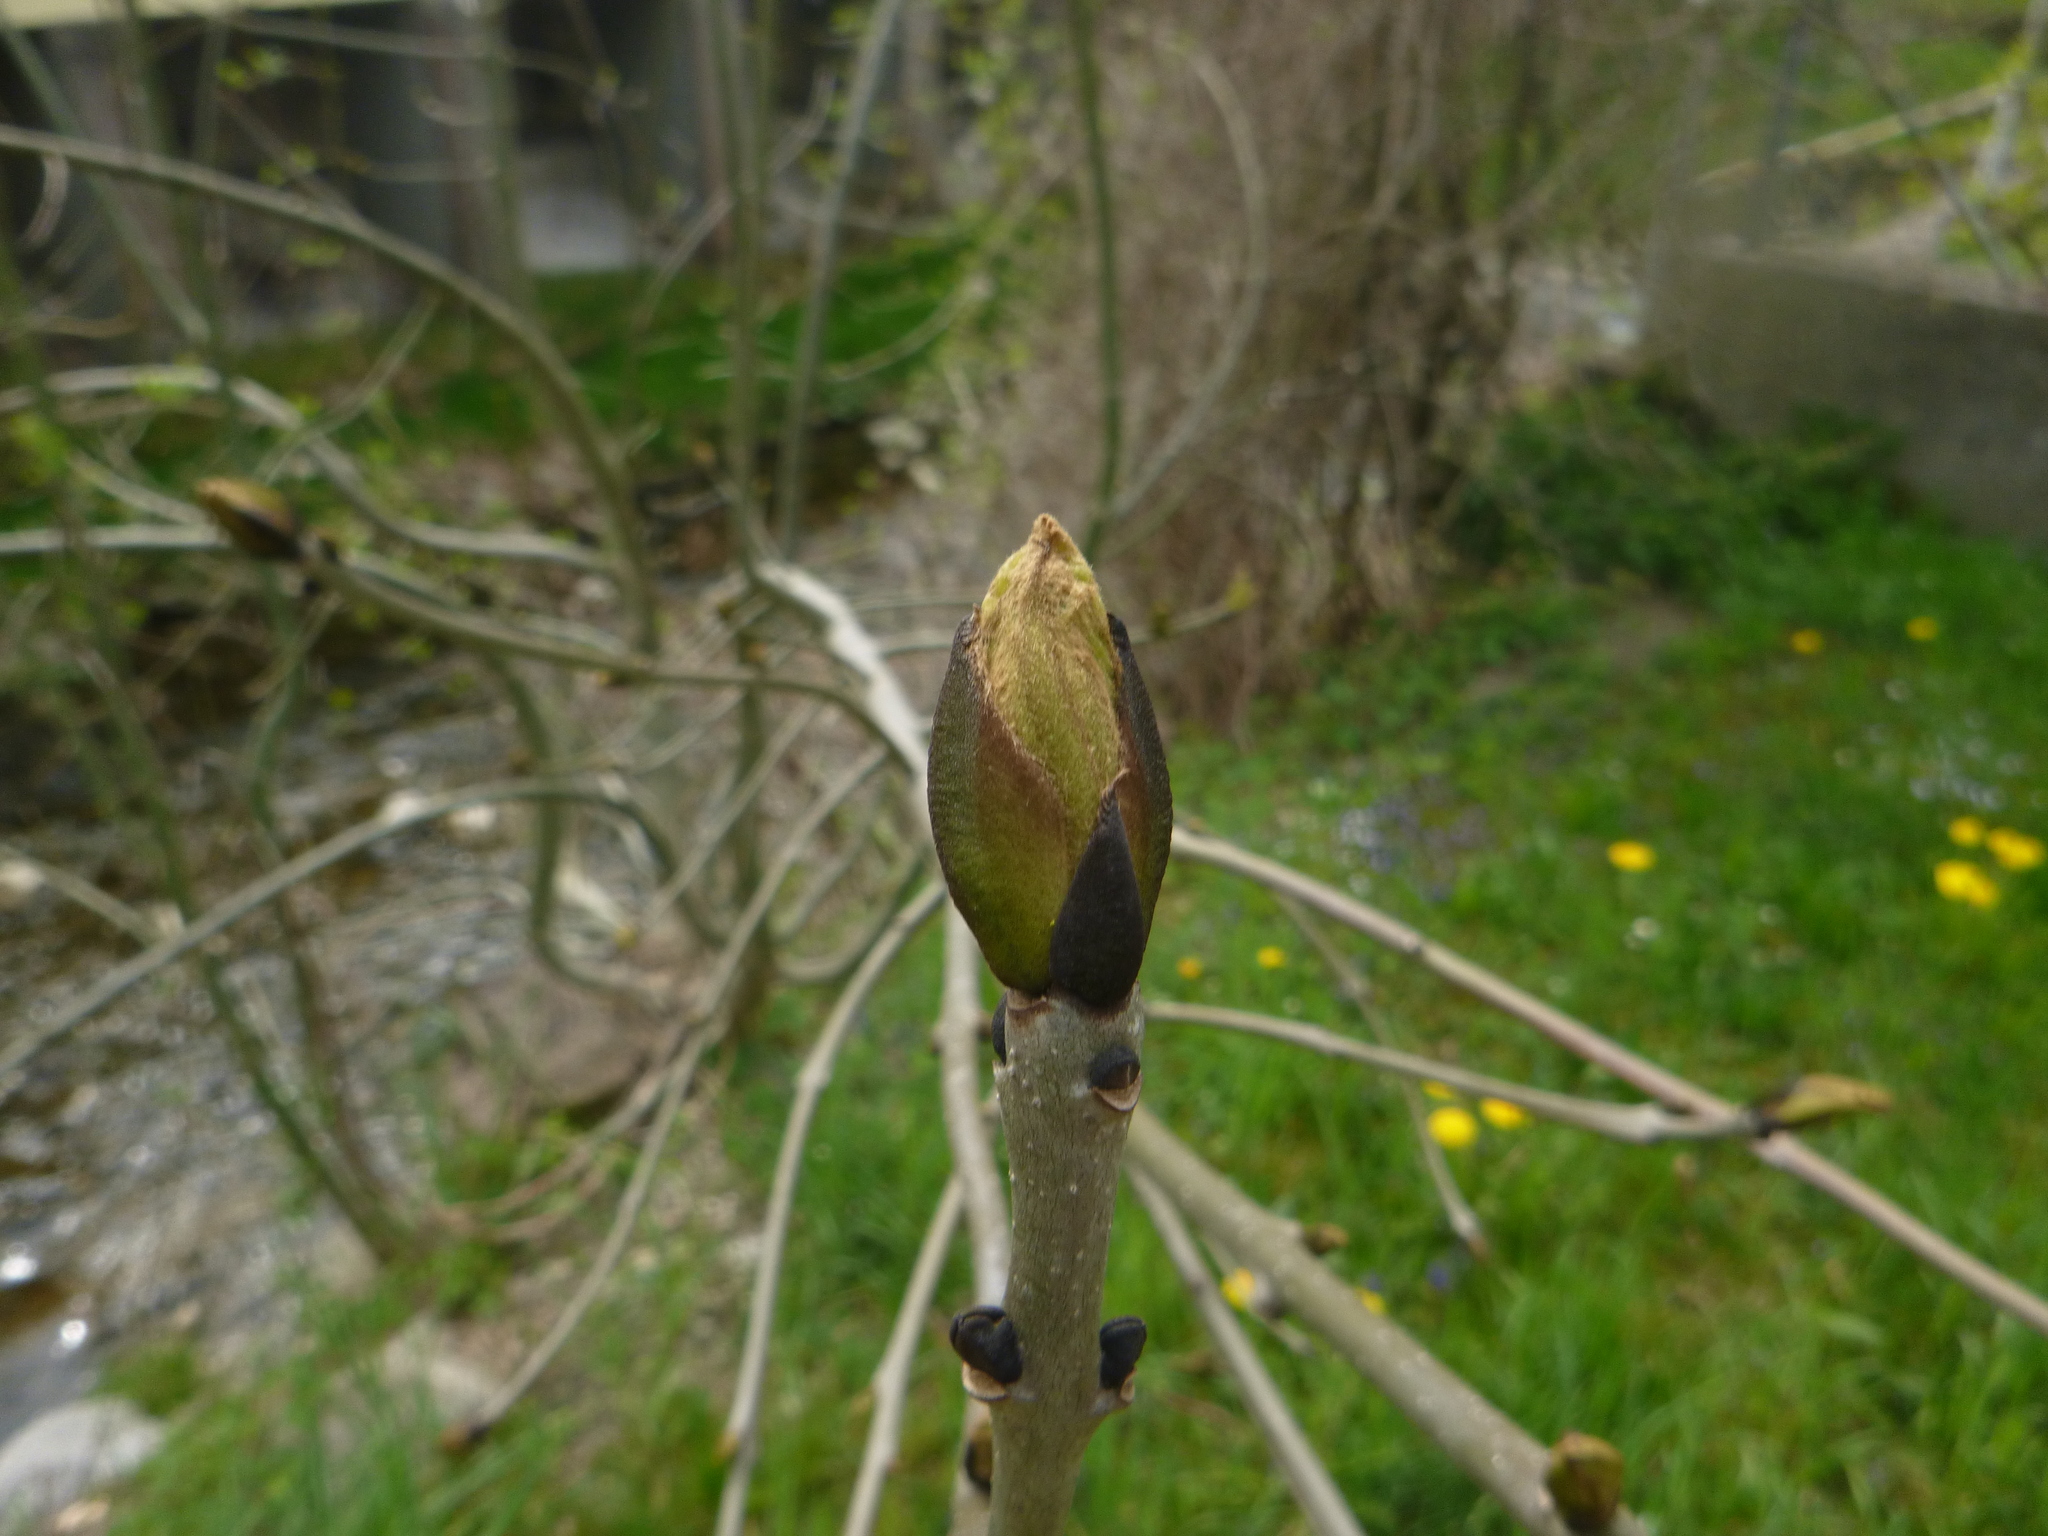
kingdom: Plantae
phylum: Tracheophyta
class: Magnoliopsida
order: Lamiales
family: Oleaceae
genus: Fraxinus
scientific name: Fraxinus excelsior
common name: European ash
